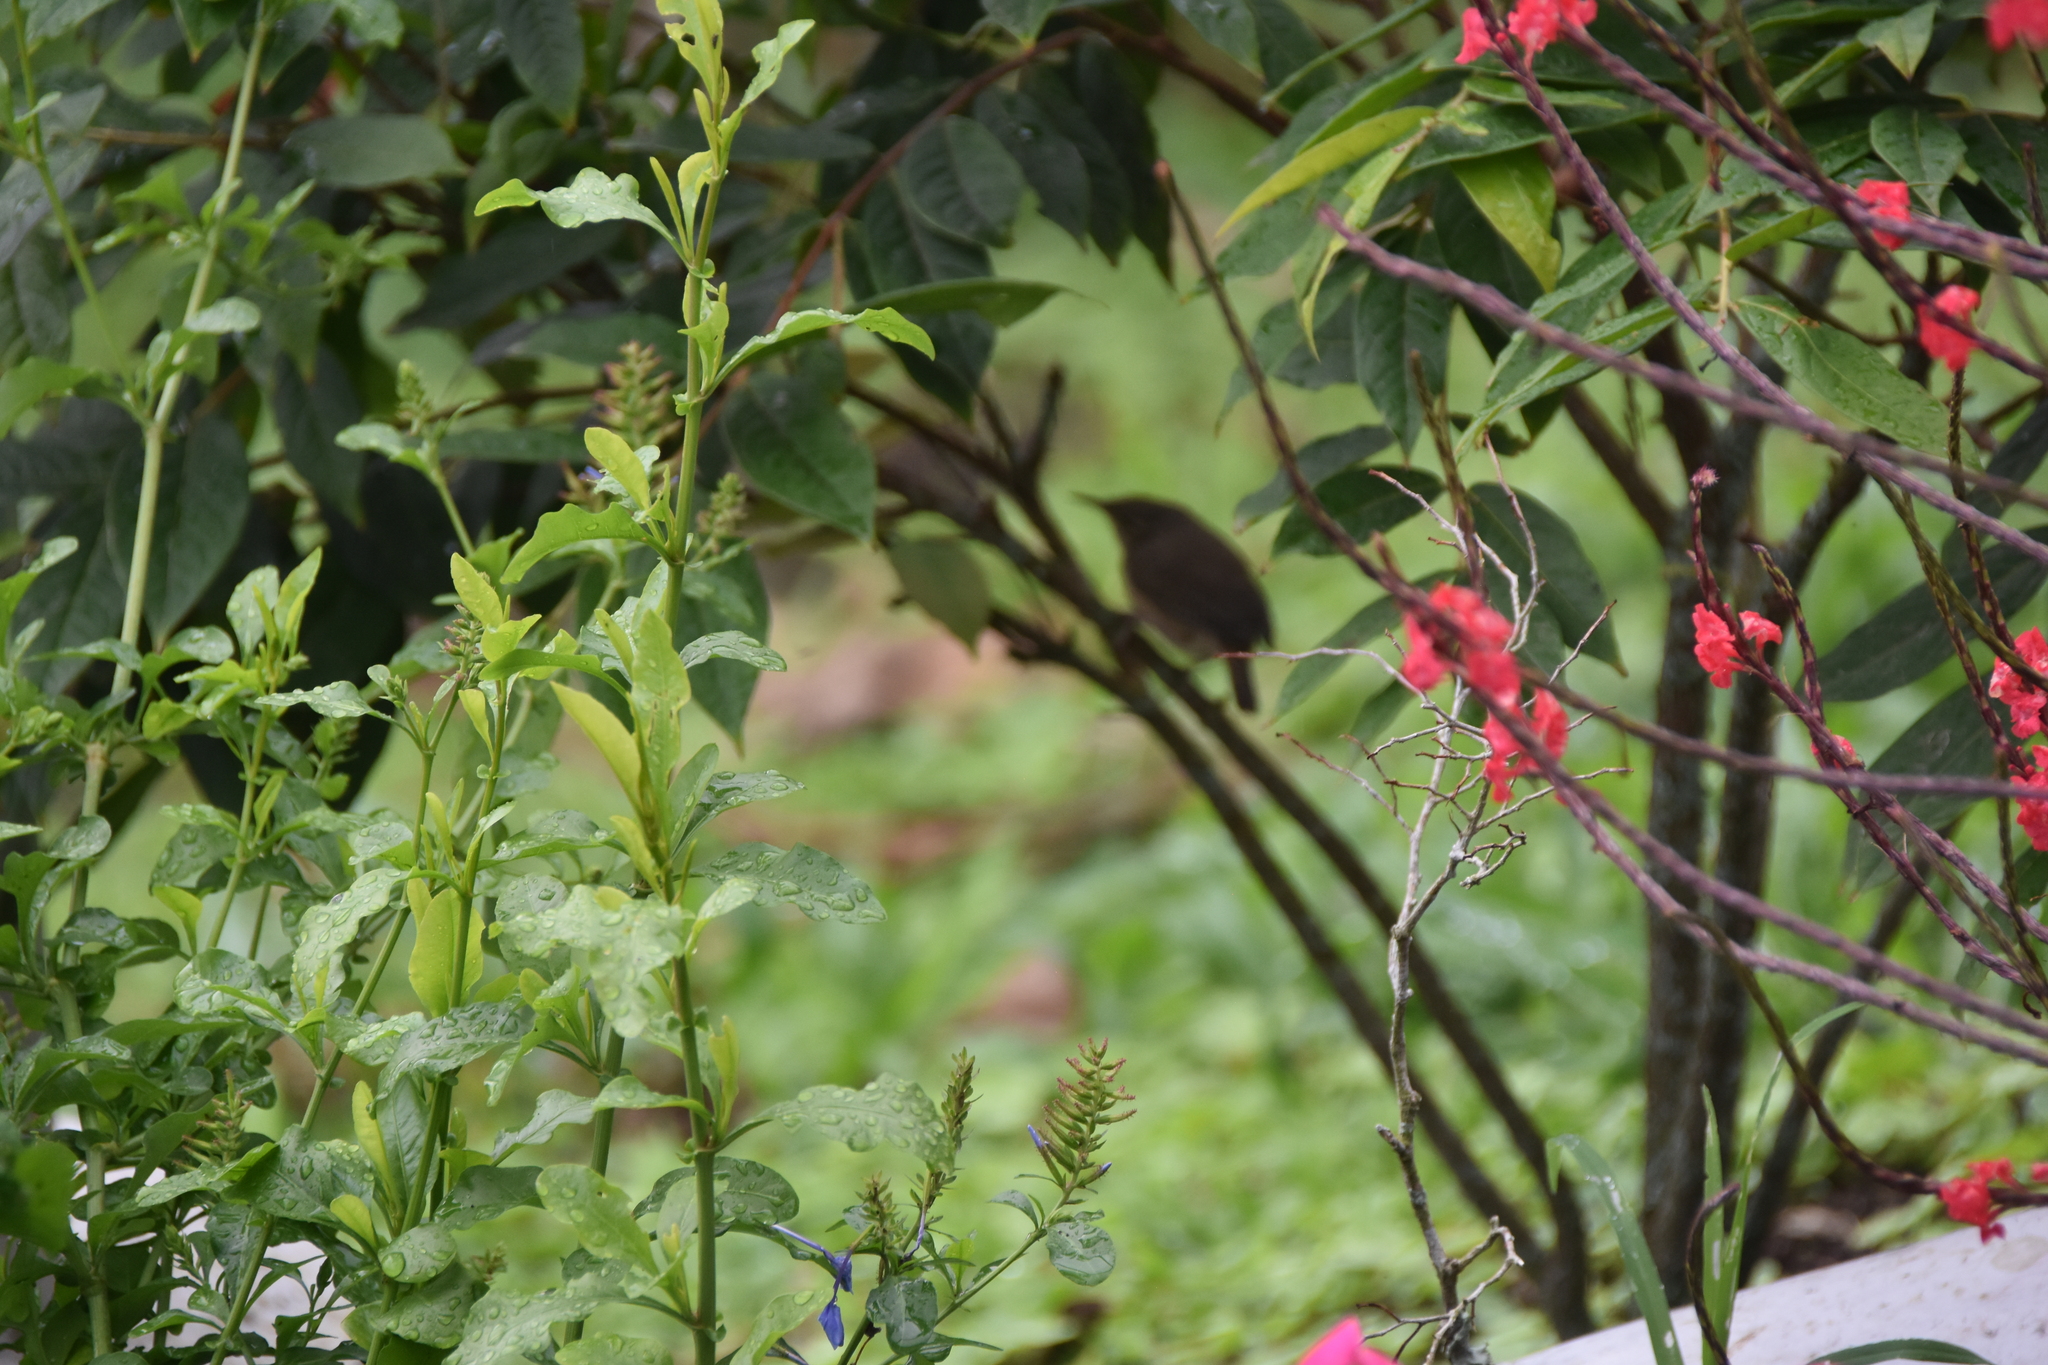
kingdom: Animalia
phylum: Chordata
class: Aves
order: Passeriformes
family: Troglodytidae
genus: Troglodytes
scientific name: Troglodytes aedon
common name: House wren
